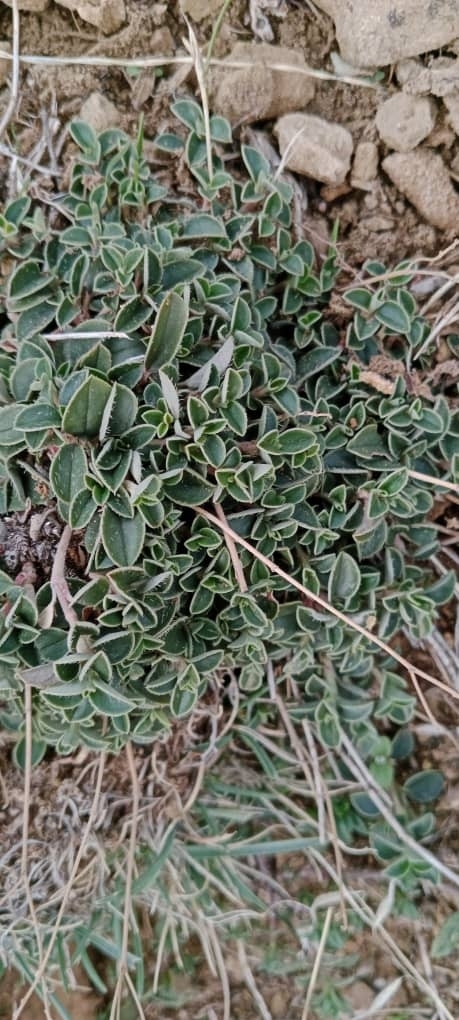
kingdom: Plantae
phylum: Tracheophyta
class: Magnoliopsida
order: Malvales
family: Cistaceae
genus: Helianthemum
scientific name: Helianthemum cinereum
